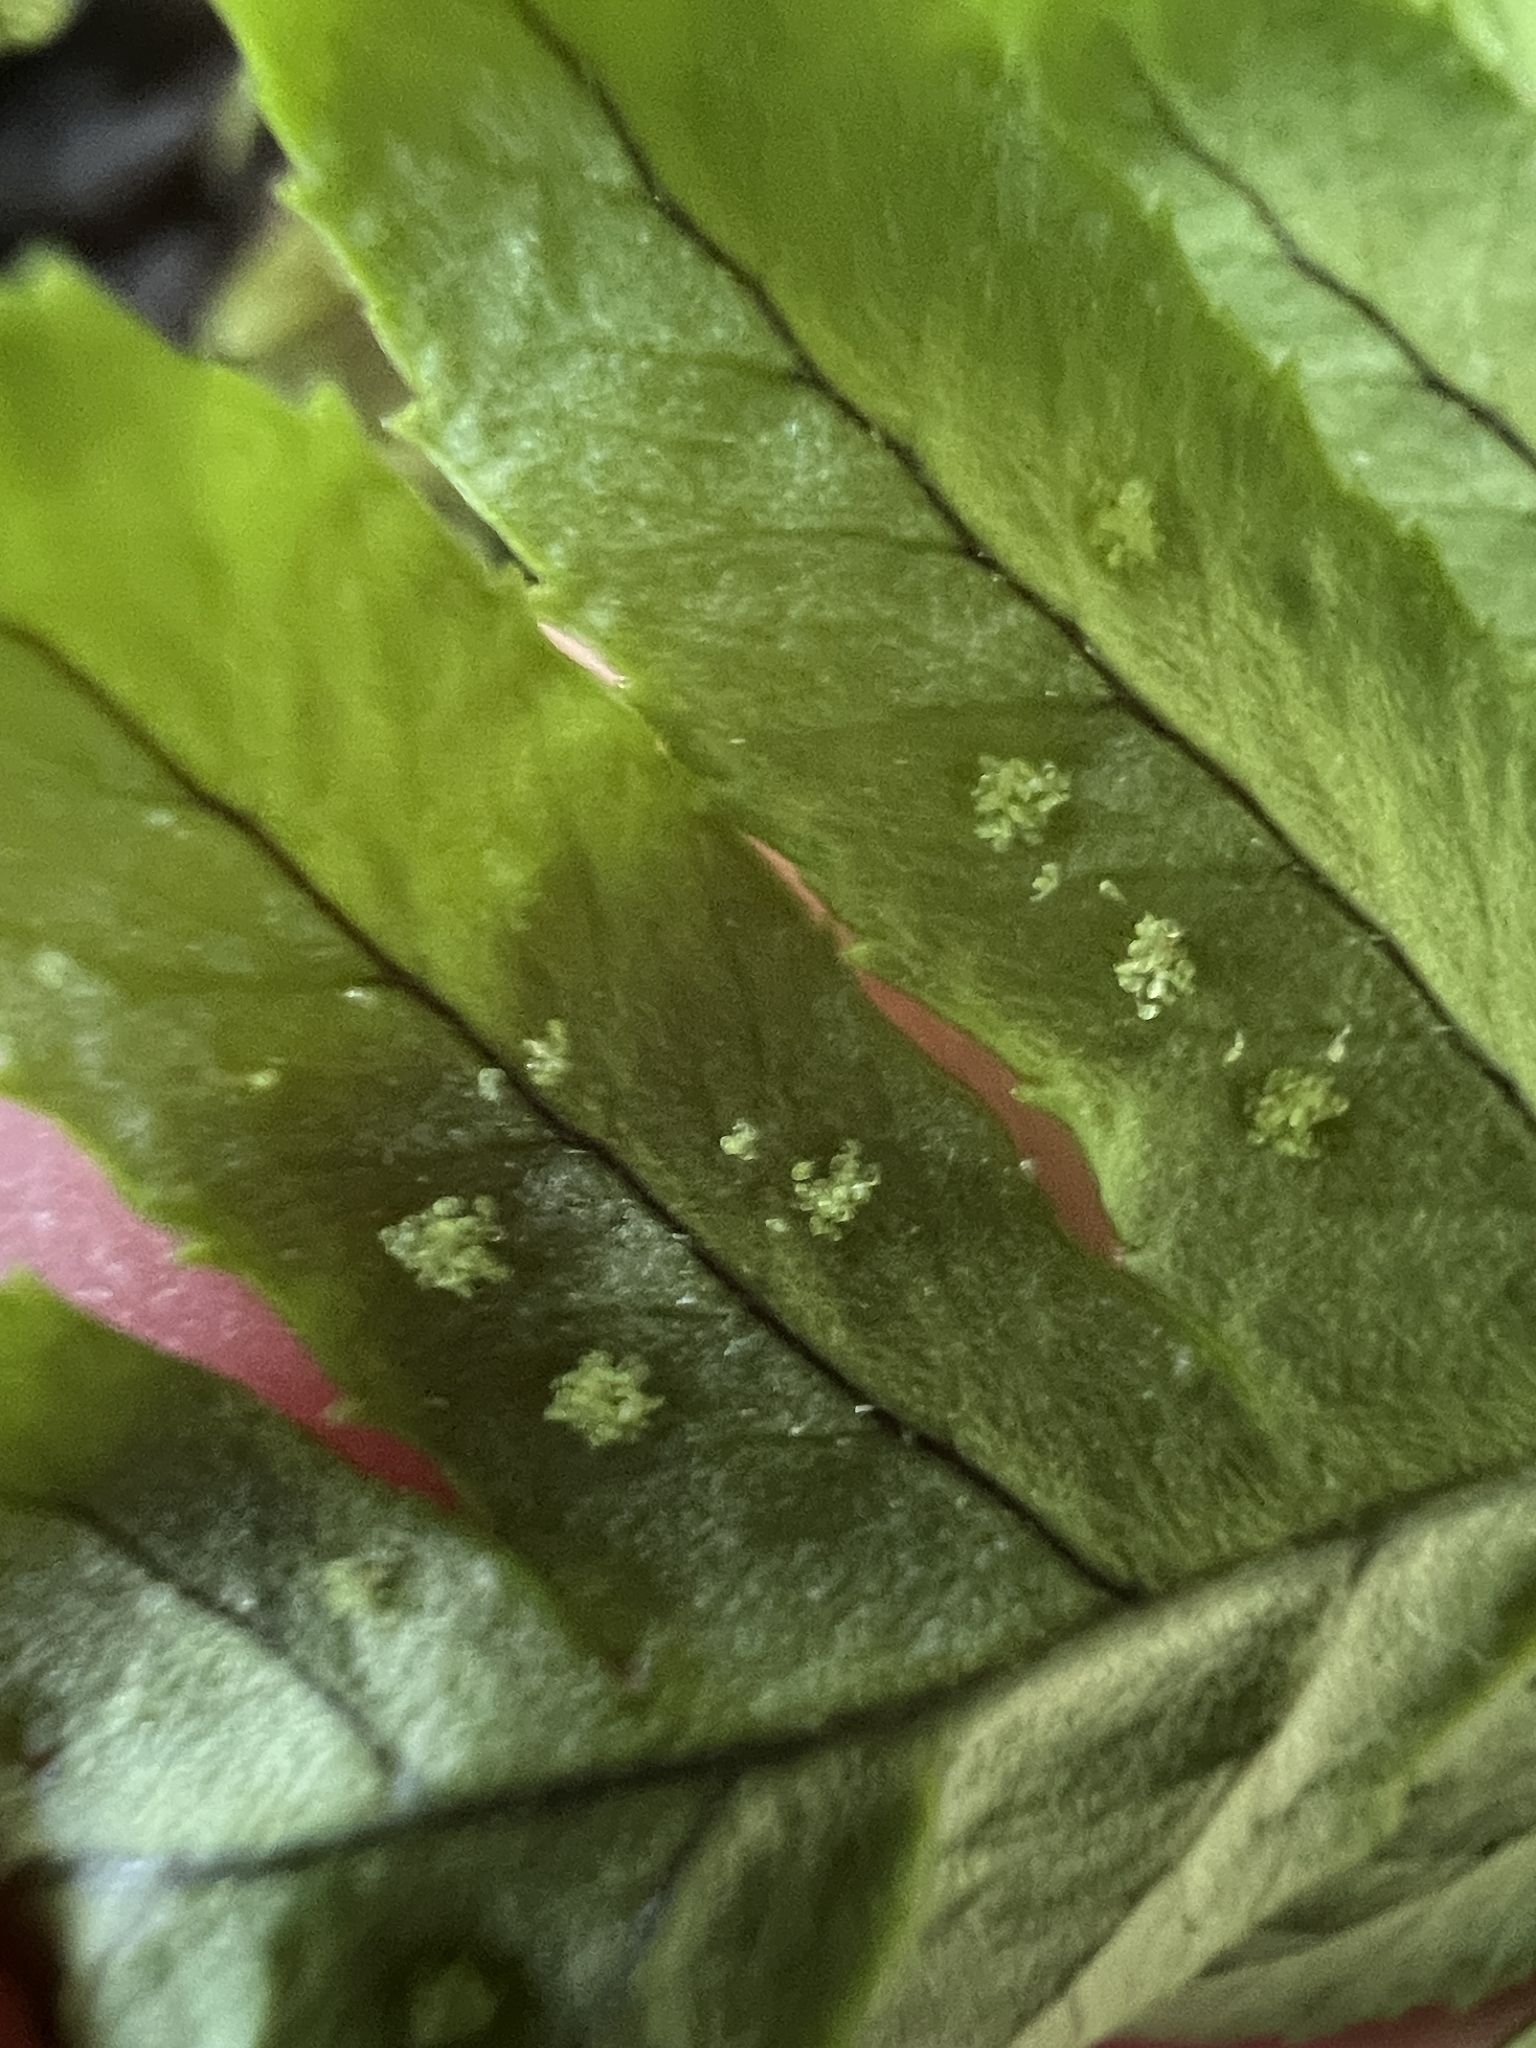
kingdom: Plantae
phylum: Tracheophyta
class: Polypodiopsida
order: Polypodiales
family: Polypodiaceae
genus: Polypodium
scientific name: Polypodium glycyrrhiza
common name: Licorice fern
